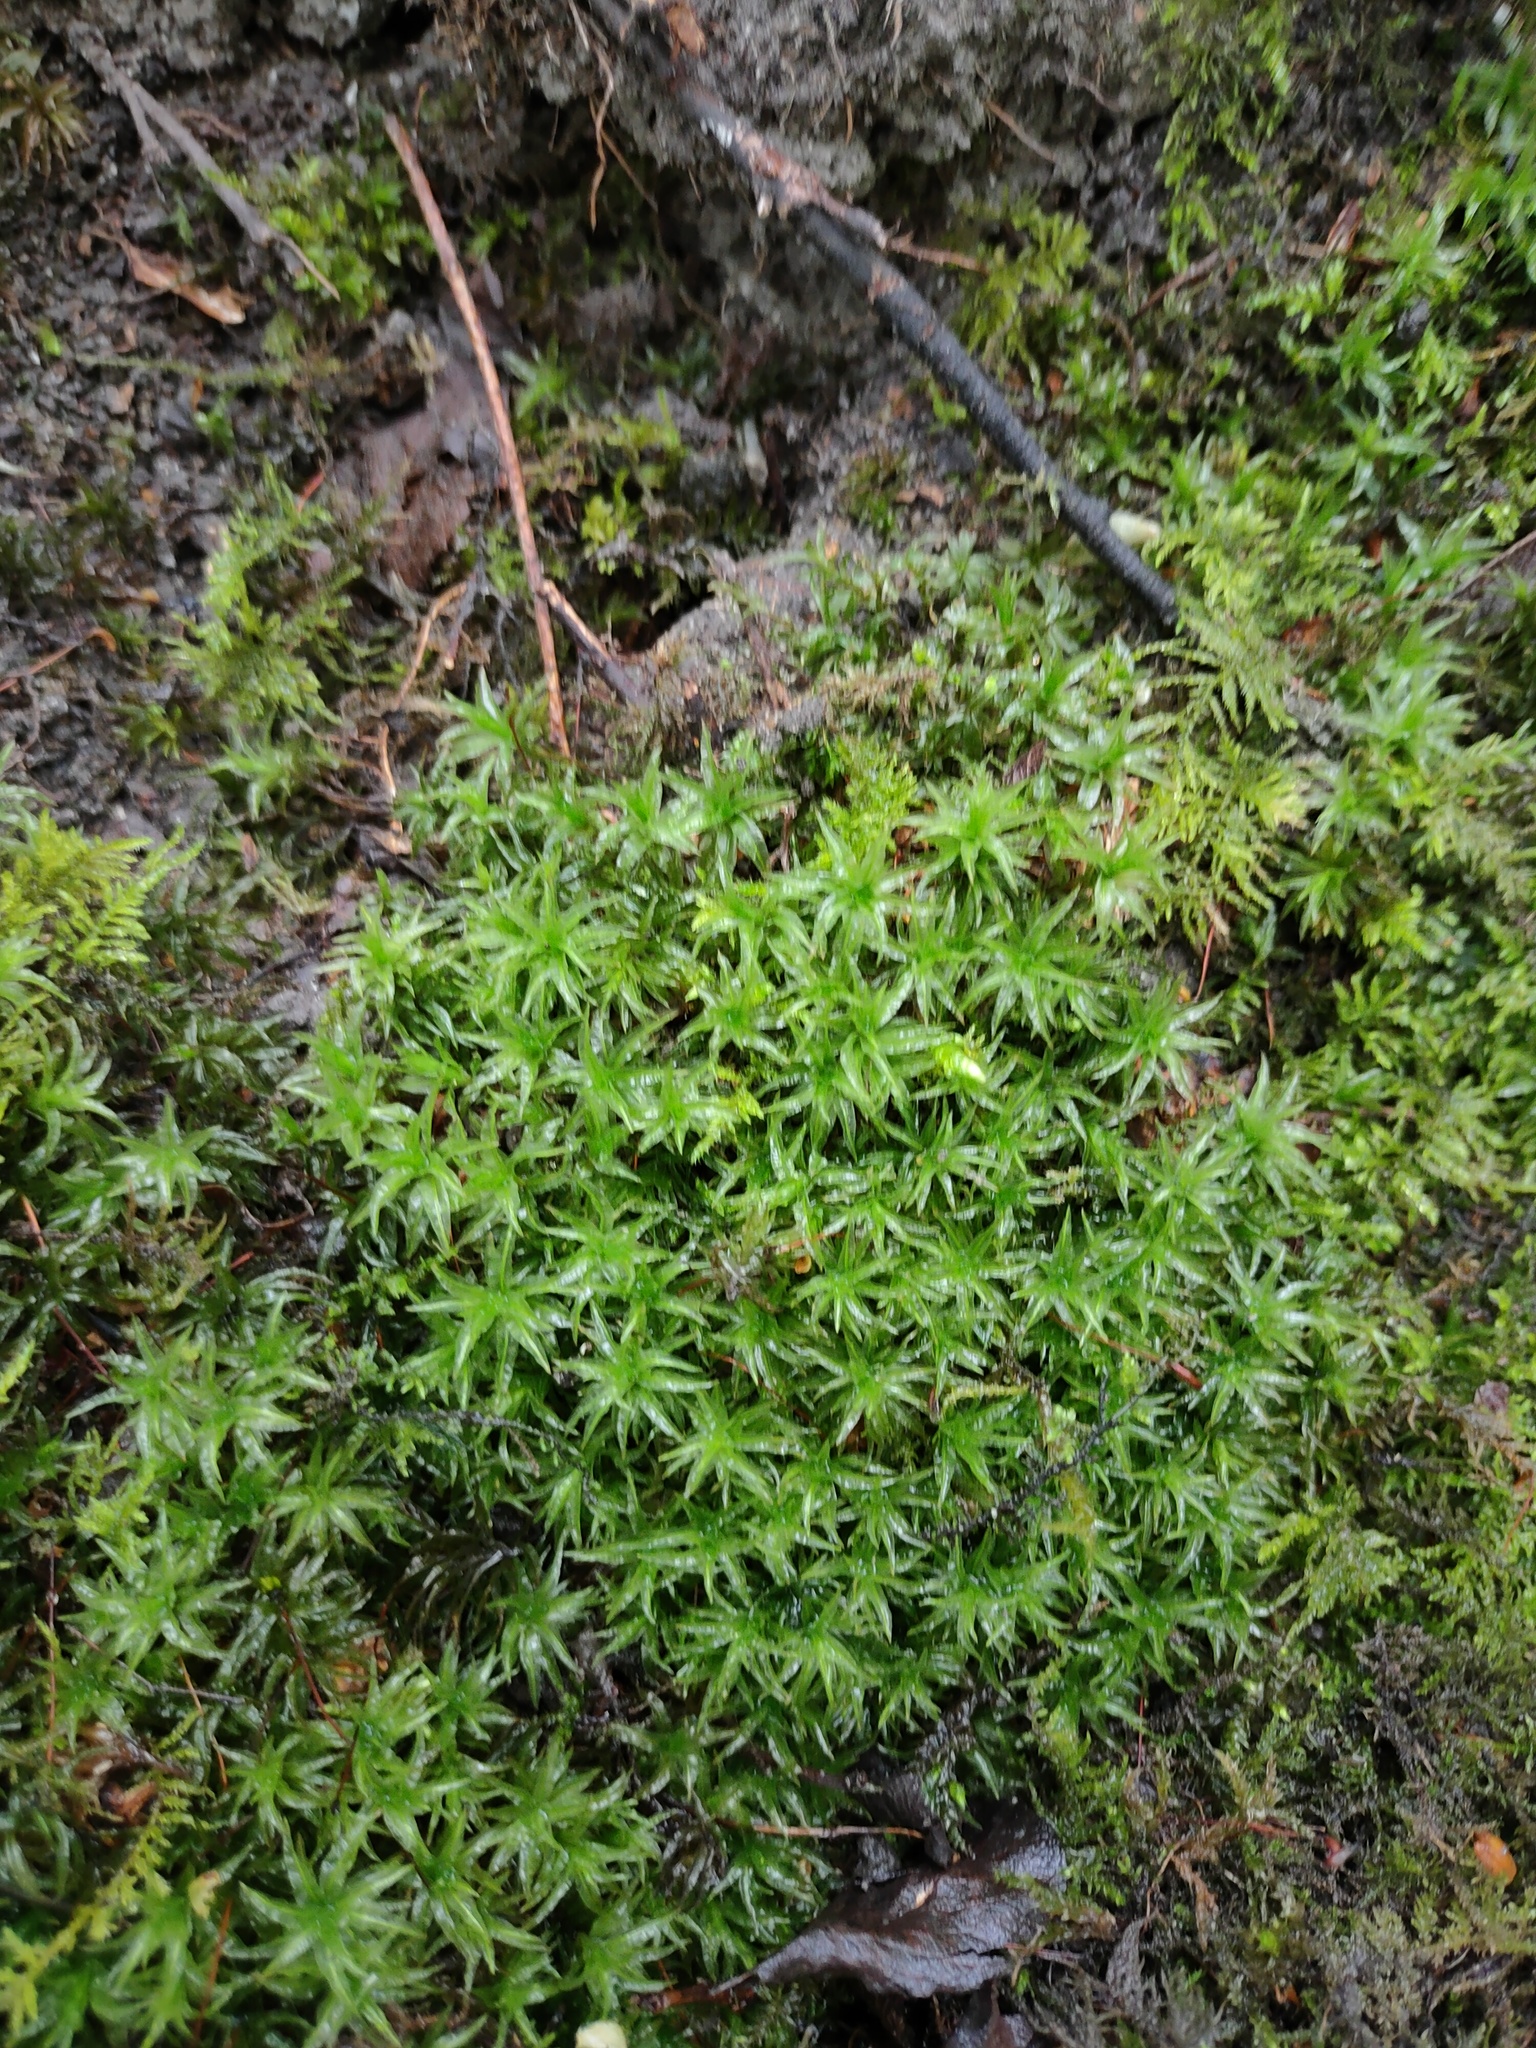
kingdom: Plantae
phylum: Bryophyta
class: Polytrichopsida
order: Polytrichales
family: Polytrichaceae
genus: Atrichum
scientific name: Atrichum undulatum
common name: Common smoothcap
